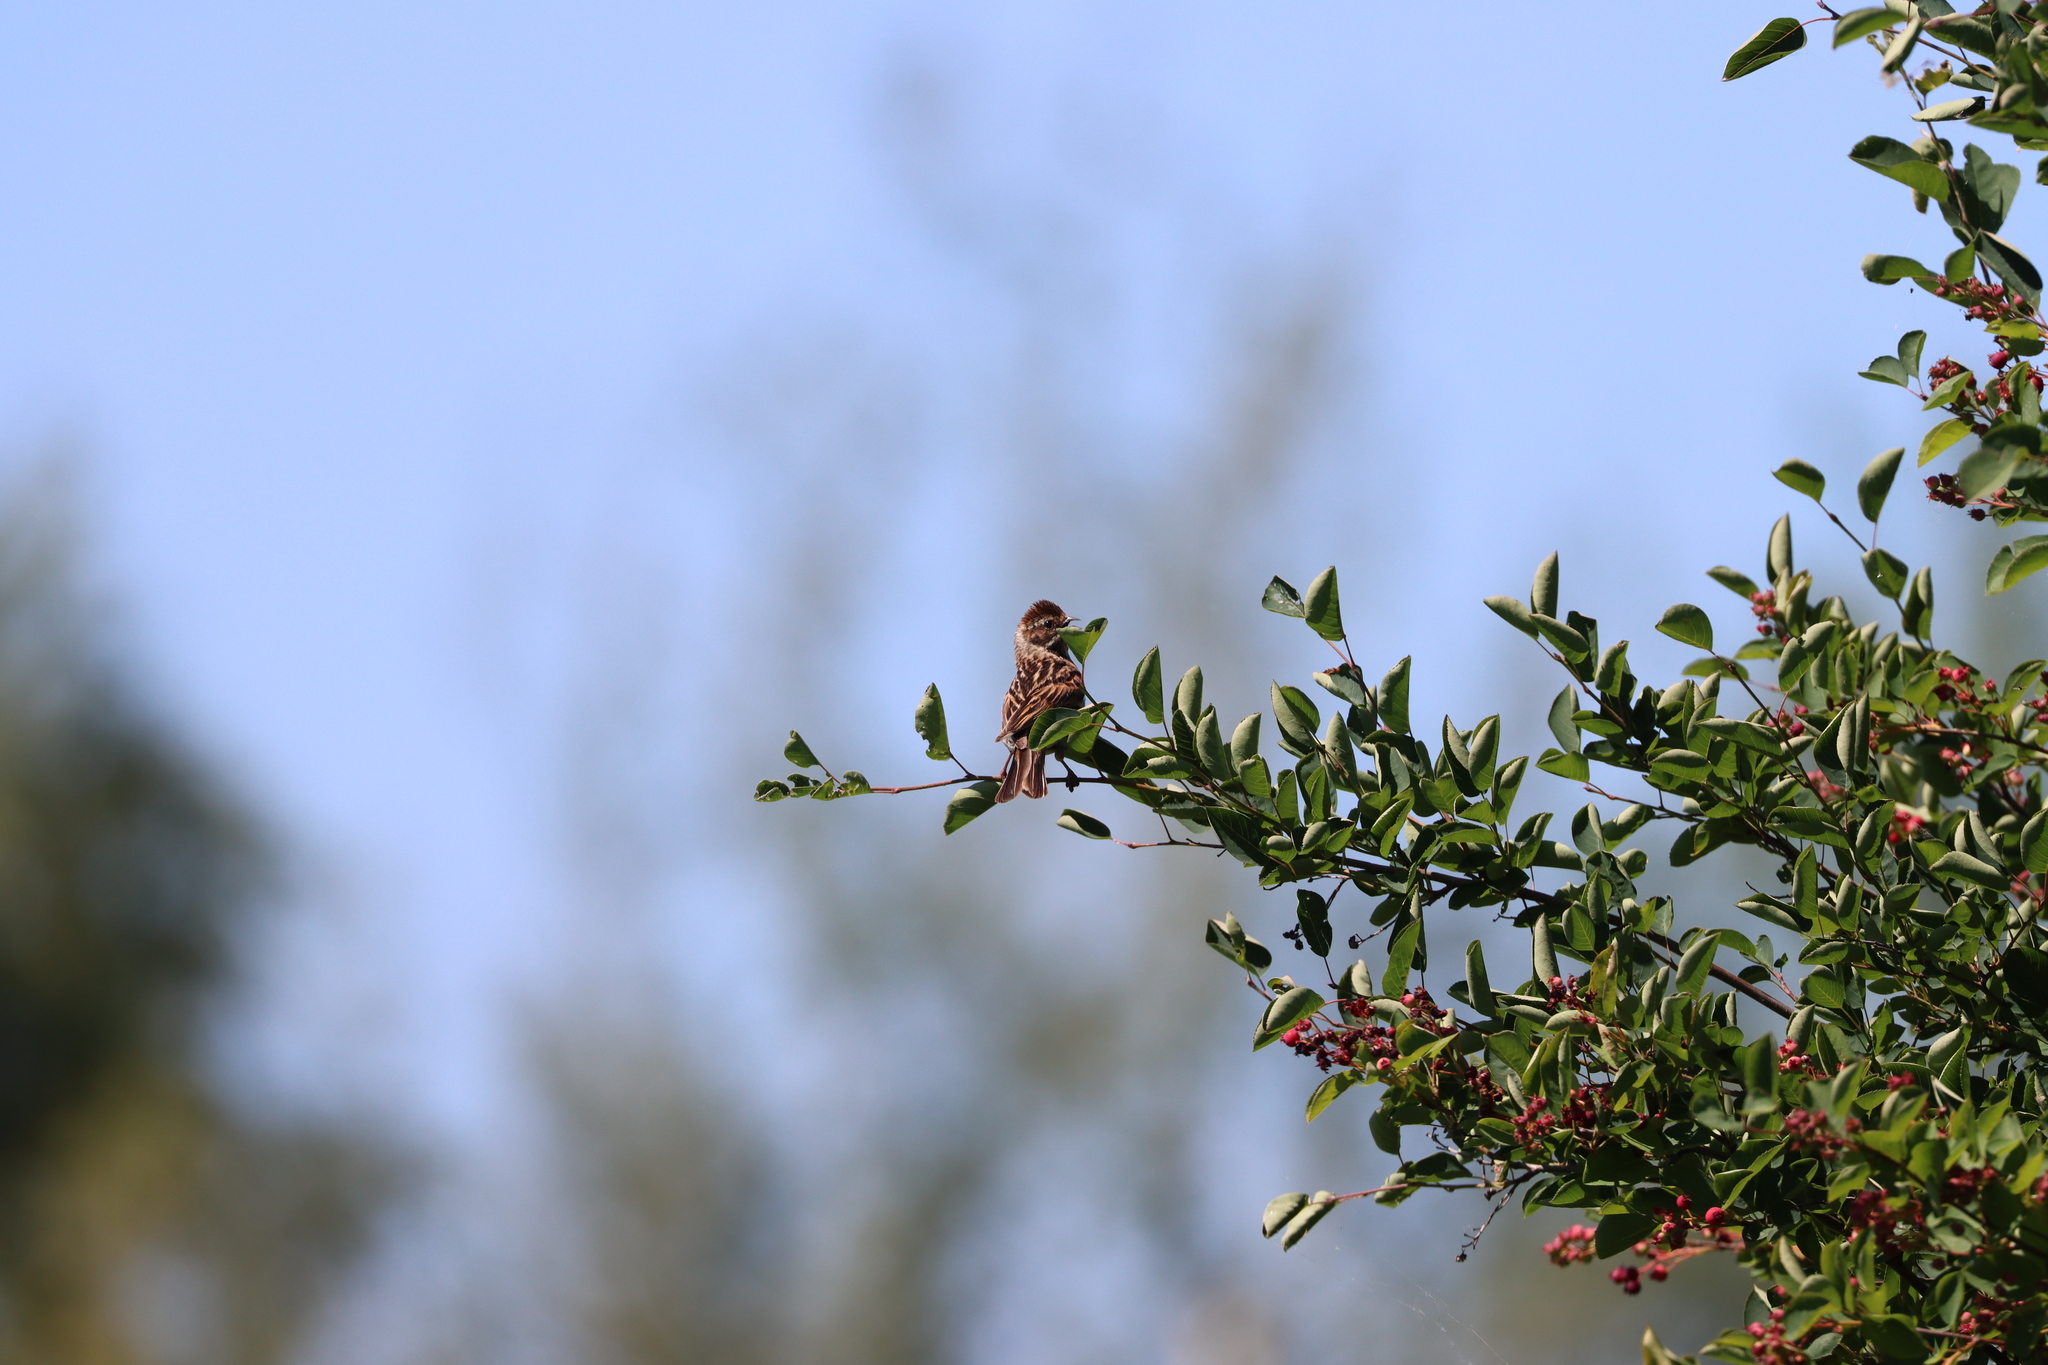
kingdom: Animalia
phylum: Chordata
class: Aves
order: Passeriformes
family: Emberizidae
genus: Emberiza
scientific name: Emberiza schoeniclus
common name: Reed bunting
